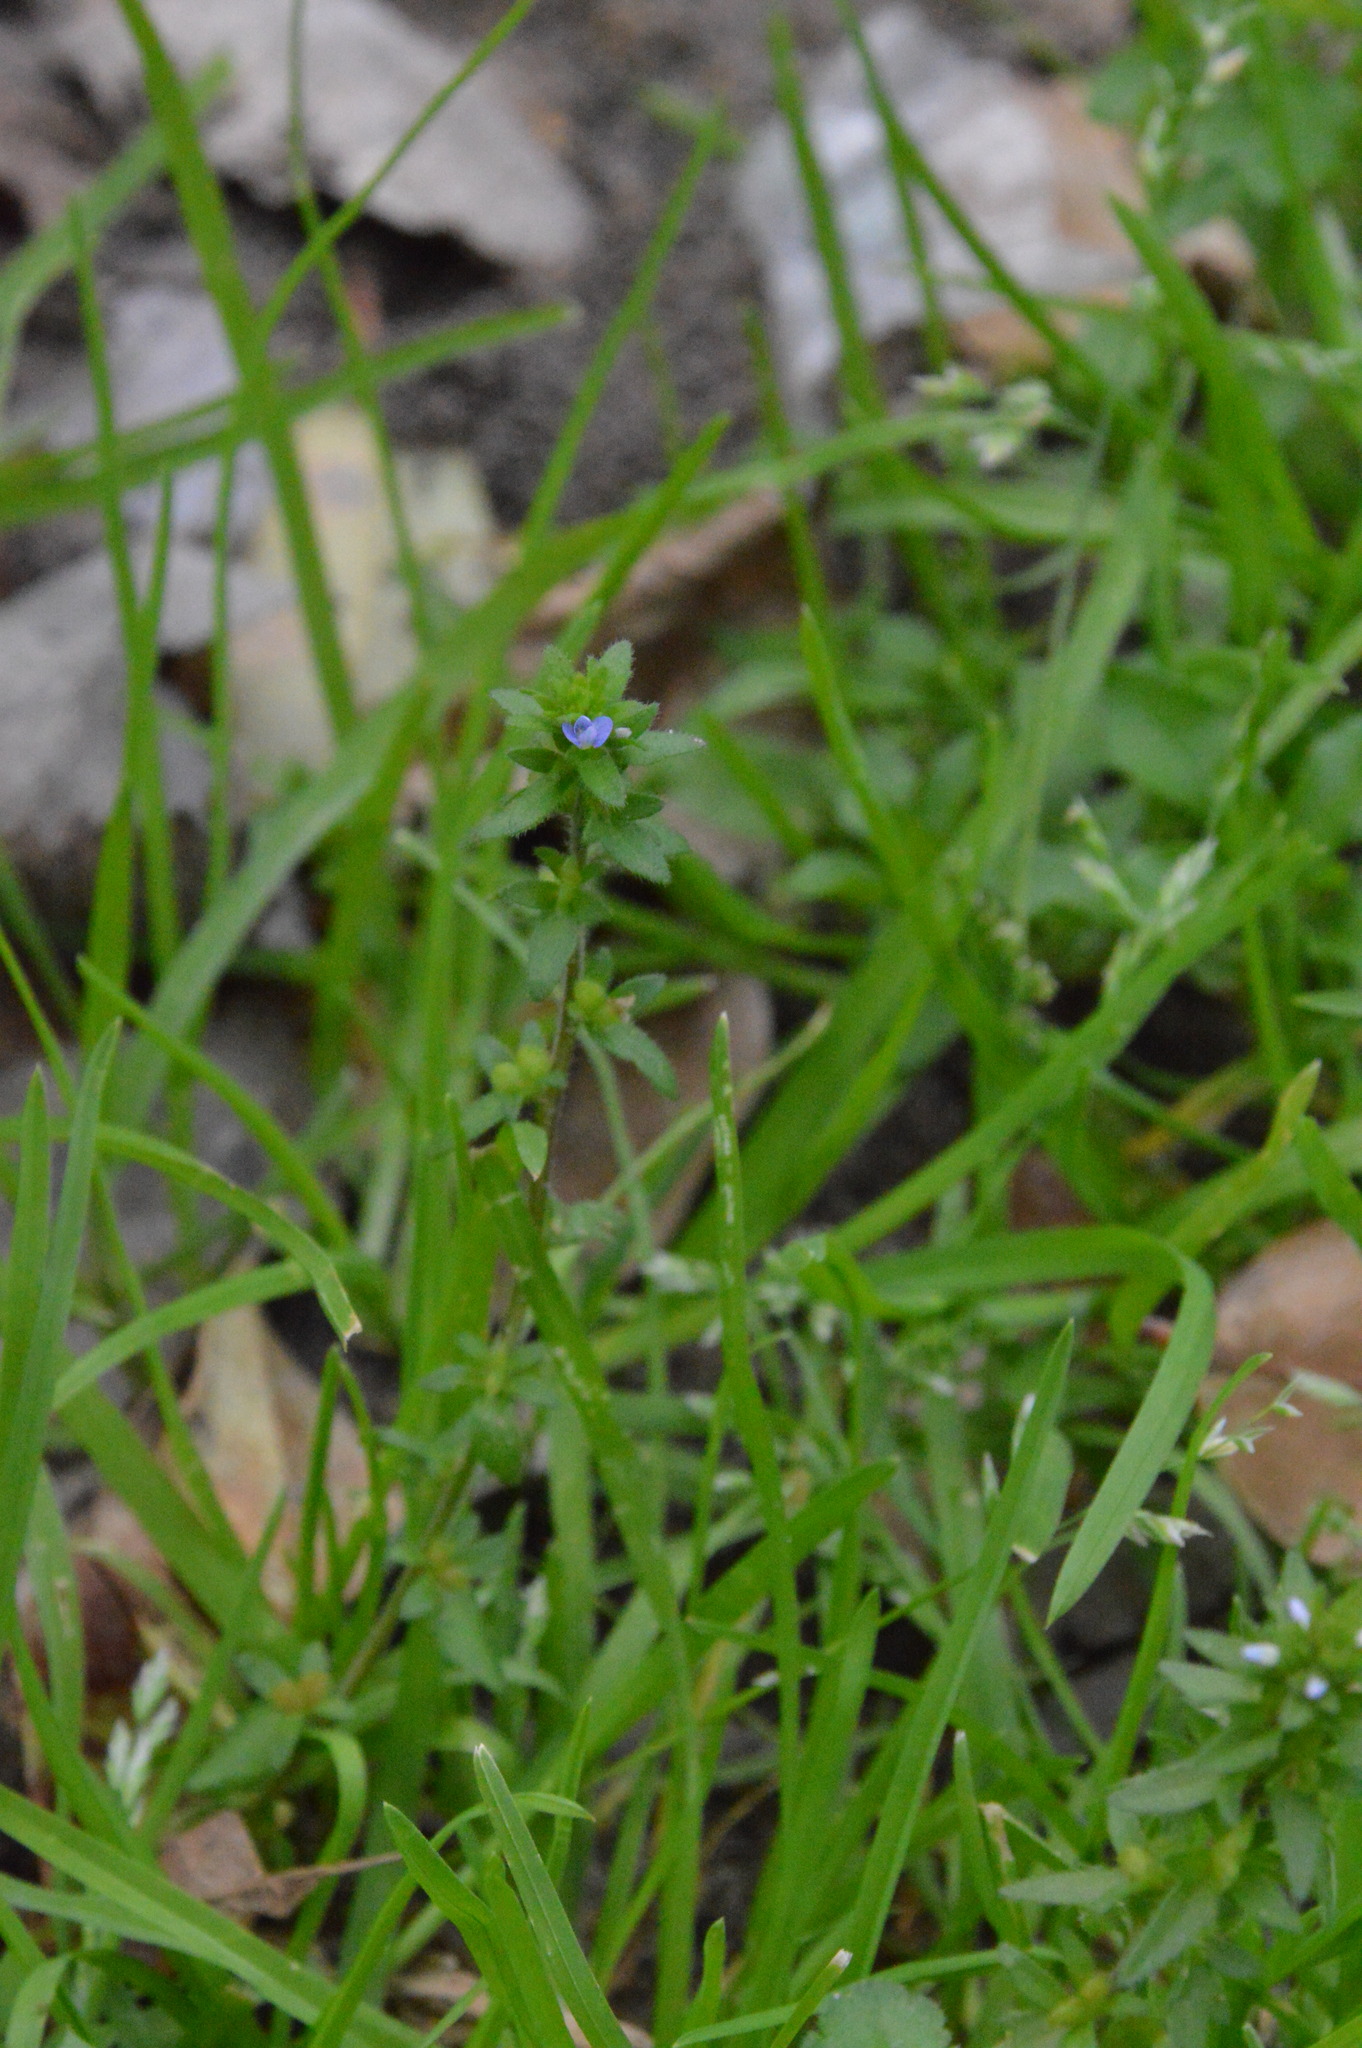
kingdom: Plantae
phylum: Tracheophyta
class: Magnoliopsida
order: Lamiales
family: Plantaginaceae
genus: Veronica
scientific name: Veronica arvensis
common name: Corn speedwell
